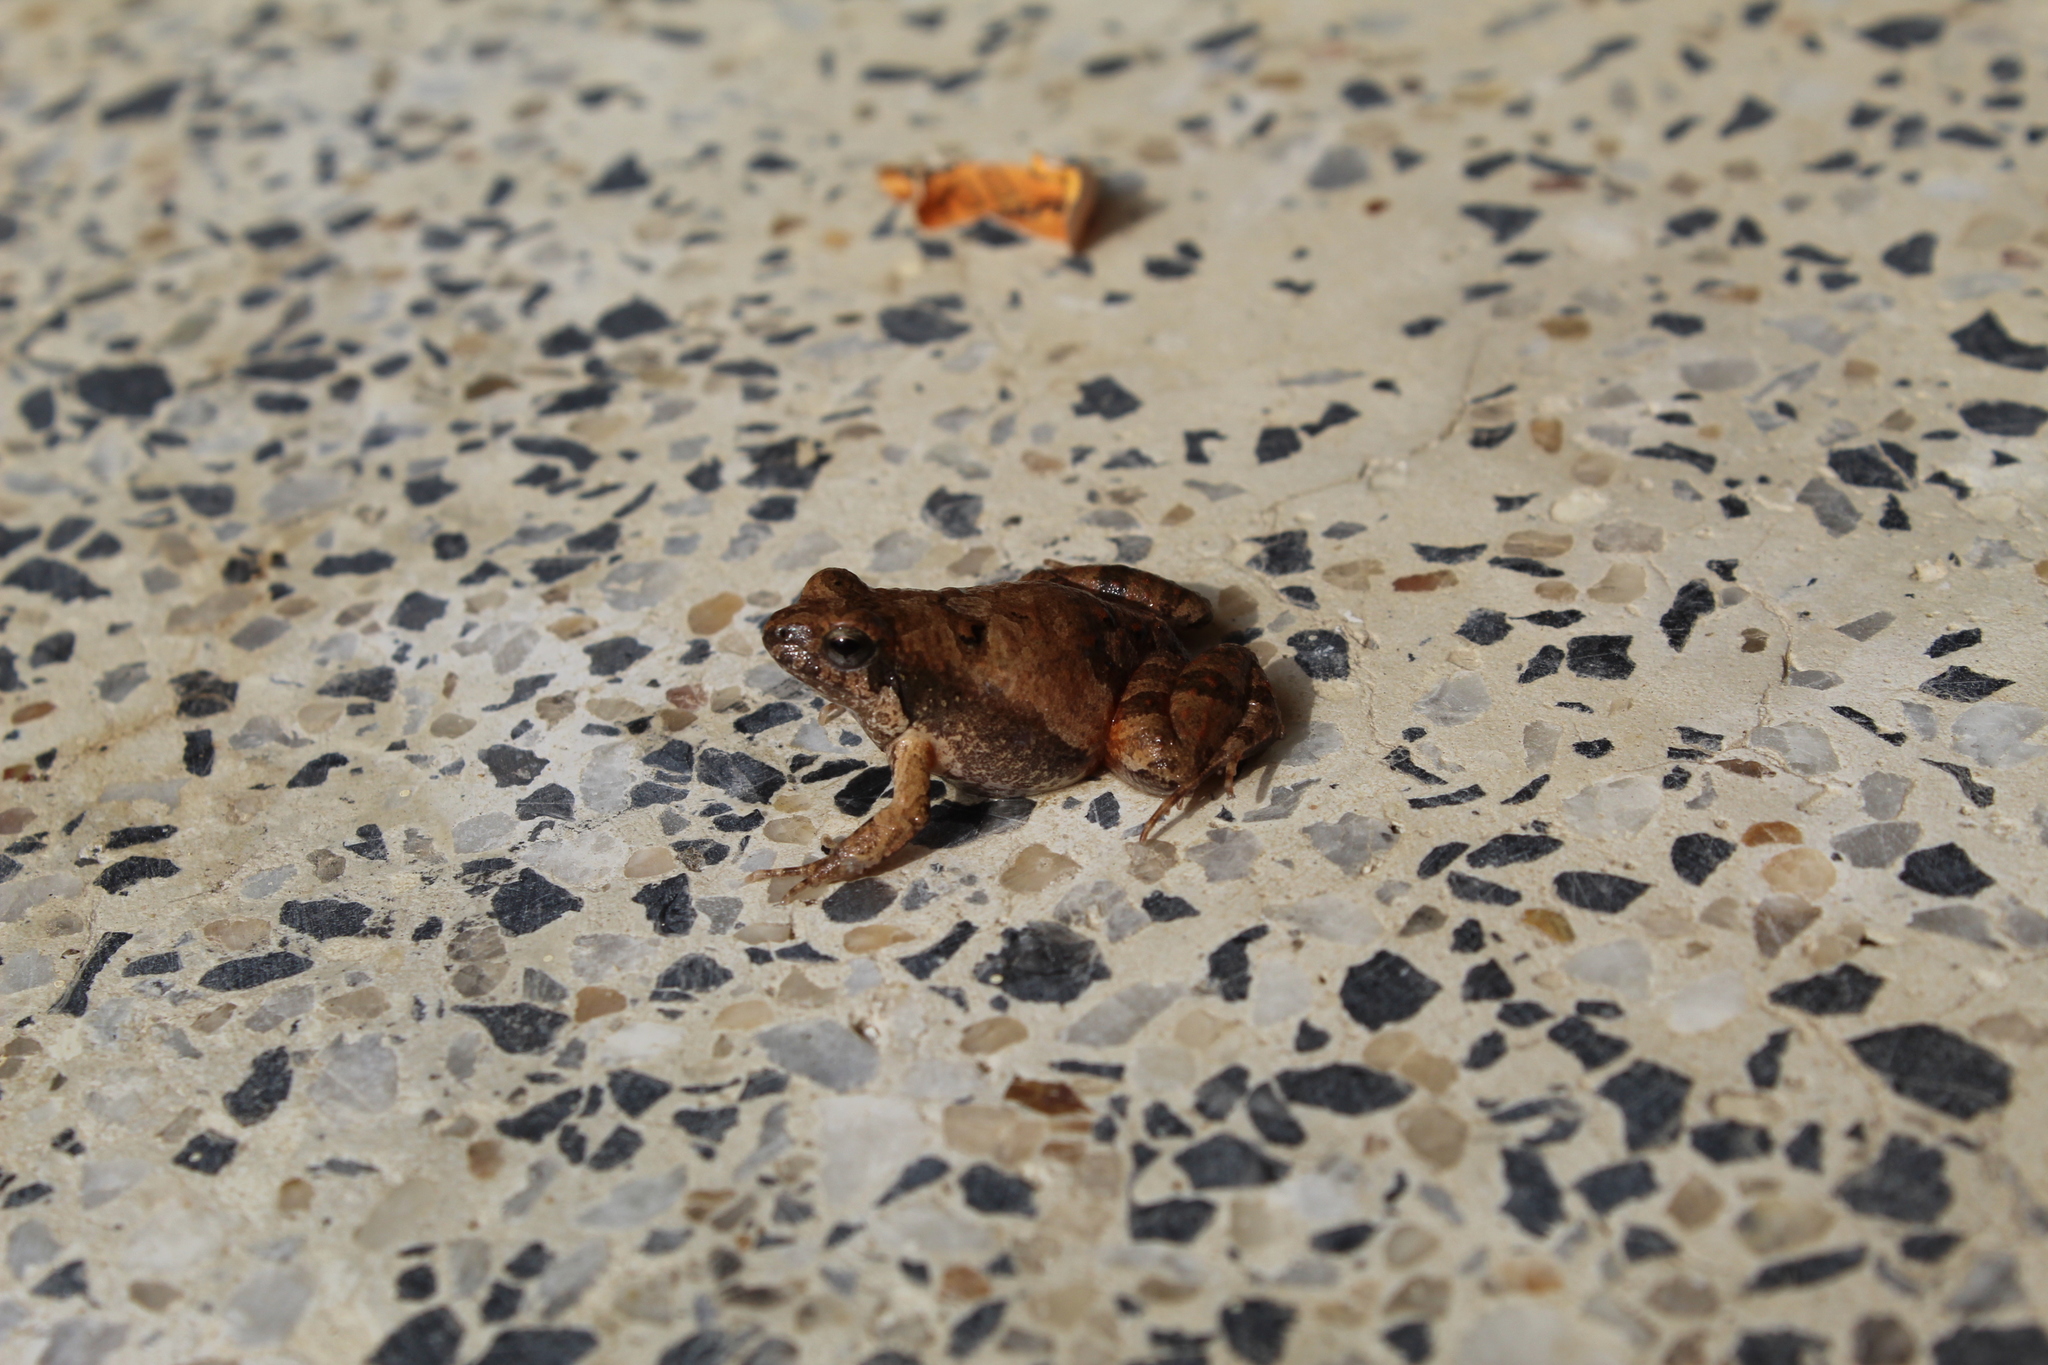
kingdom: Animalia
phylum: Chordata
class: Amphibia
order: Anura
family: Leptodactylidae
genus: Physalaemus
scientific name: Physalaemus fischeri
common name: Fischer’s dwarf frog
